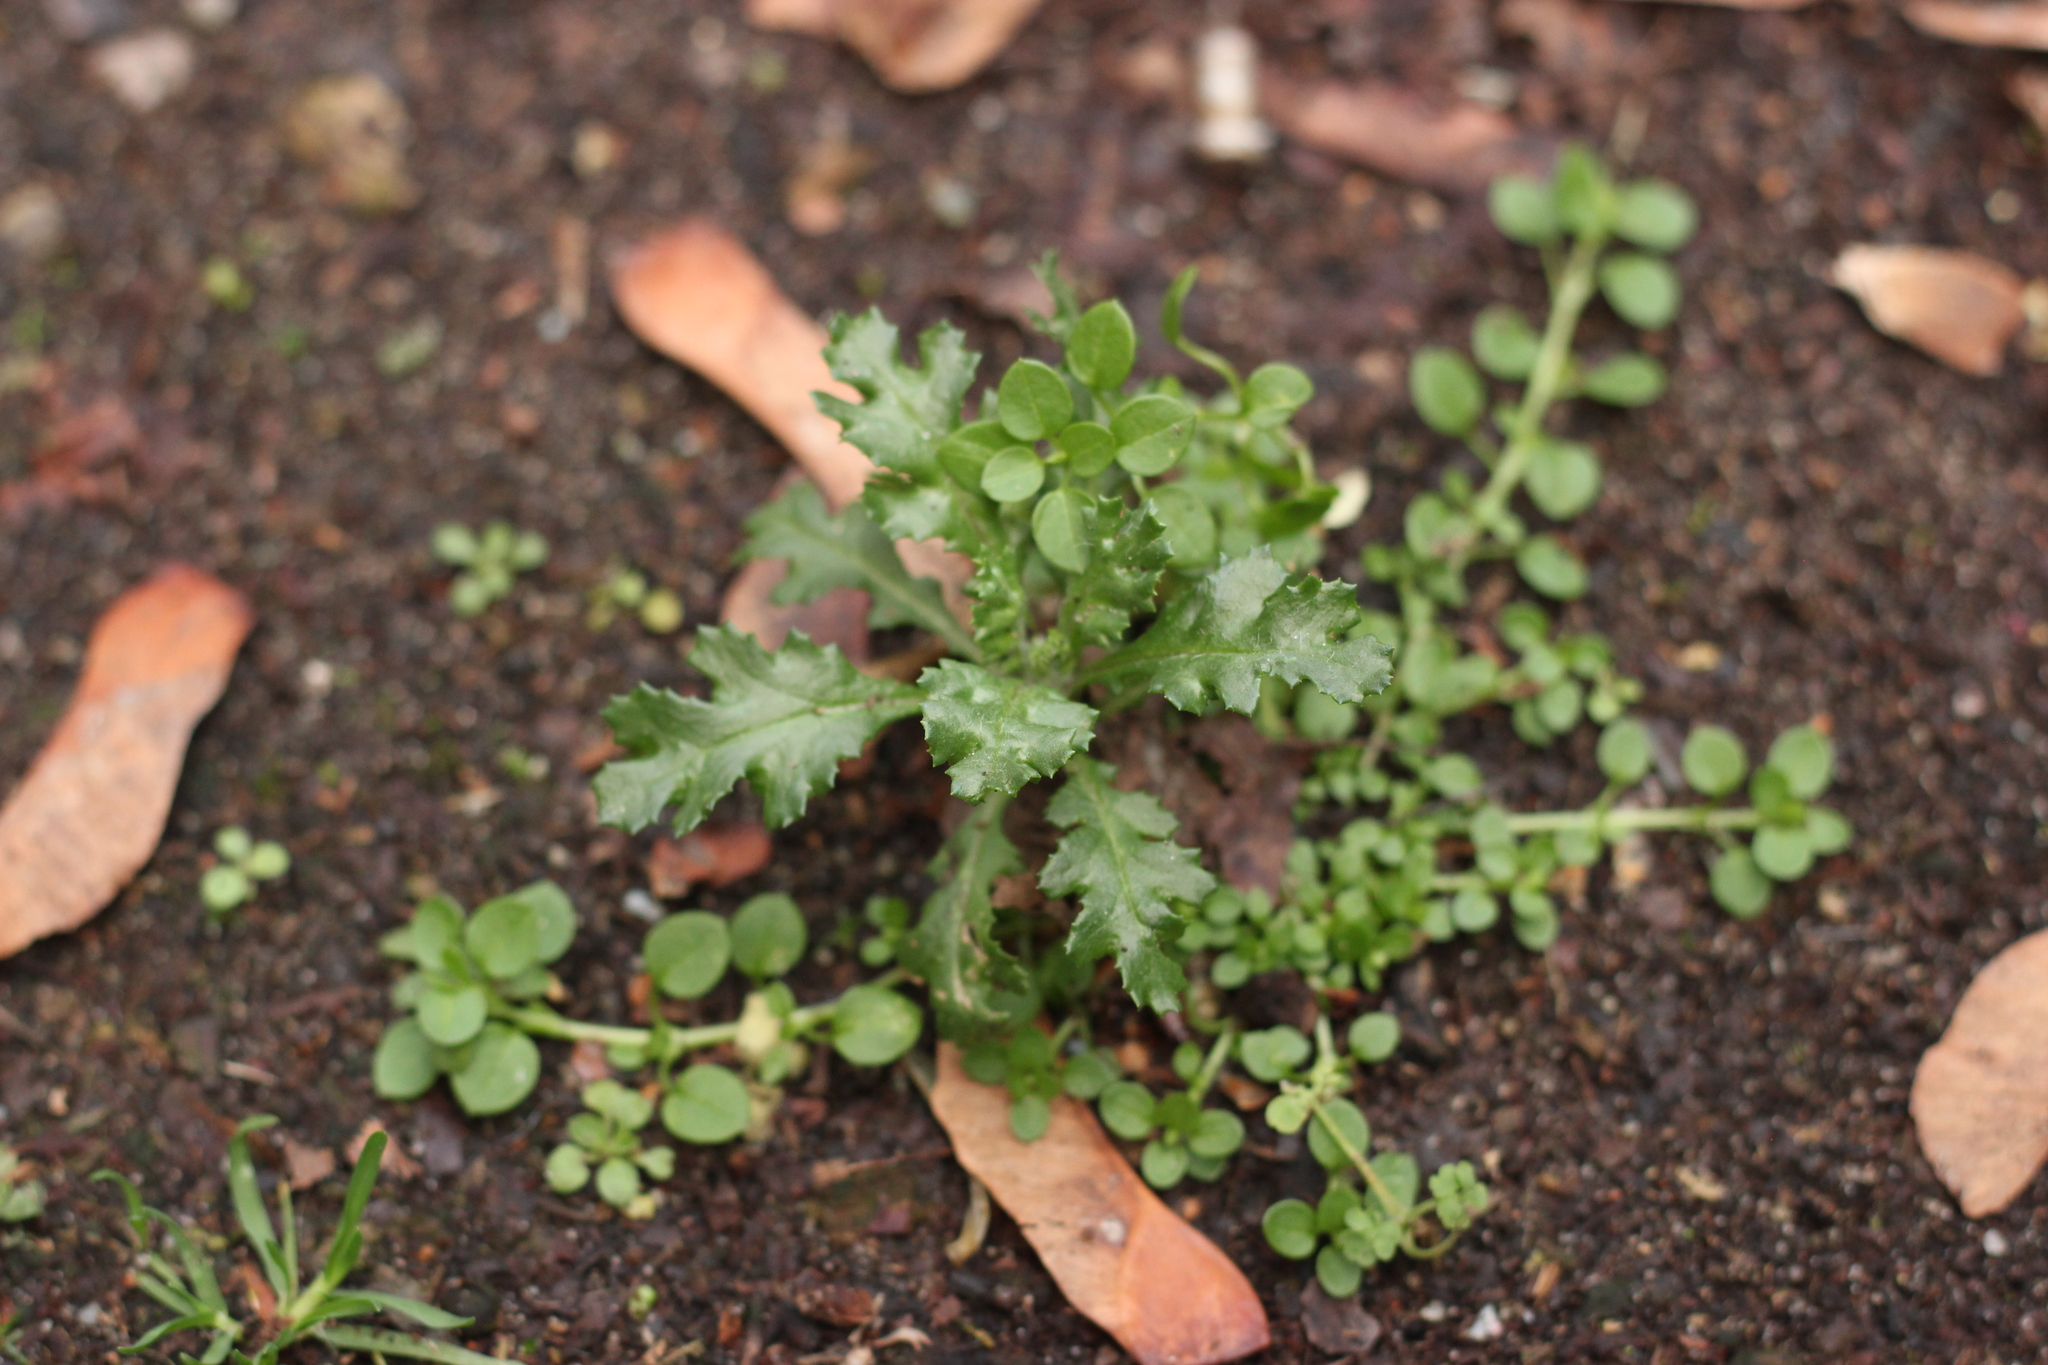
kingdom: Plantae
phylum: Tracheophyta
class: Magnoliopsida
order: Asterales
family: Asteraceae
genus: Senecio
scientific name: Senecio vulgaris
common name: Old-man-in-the-spring
